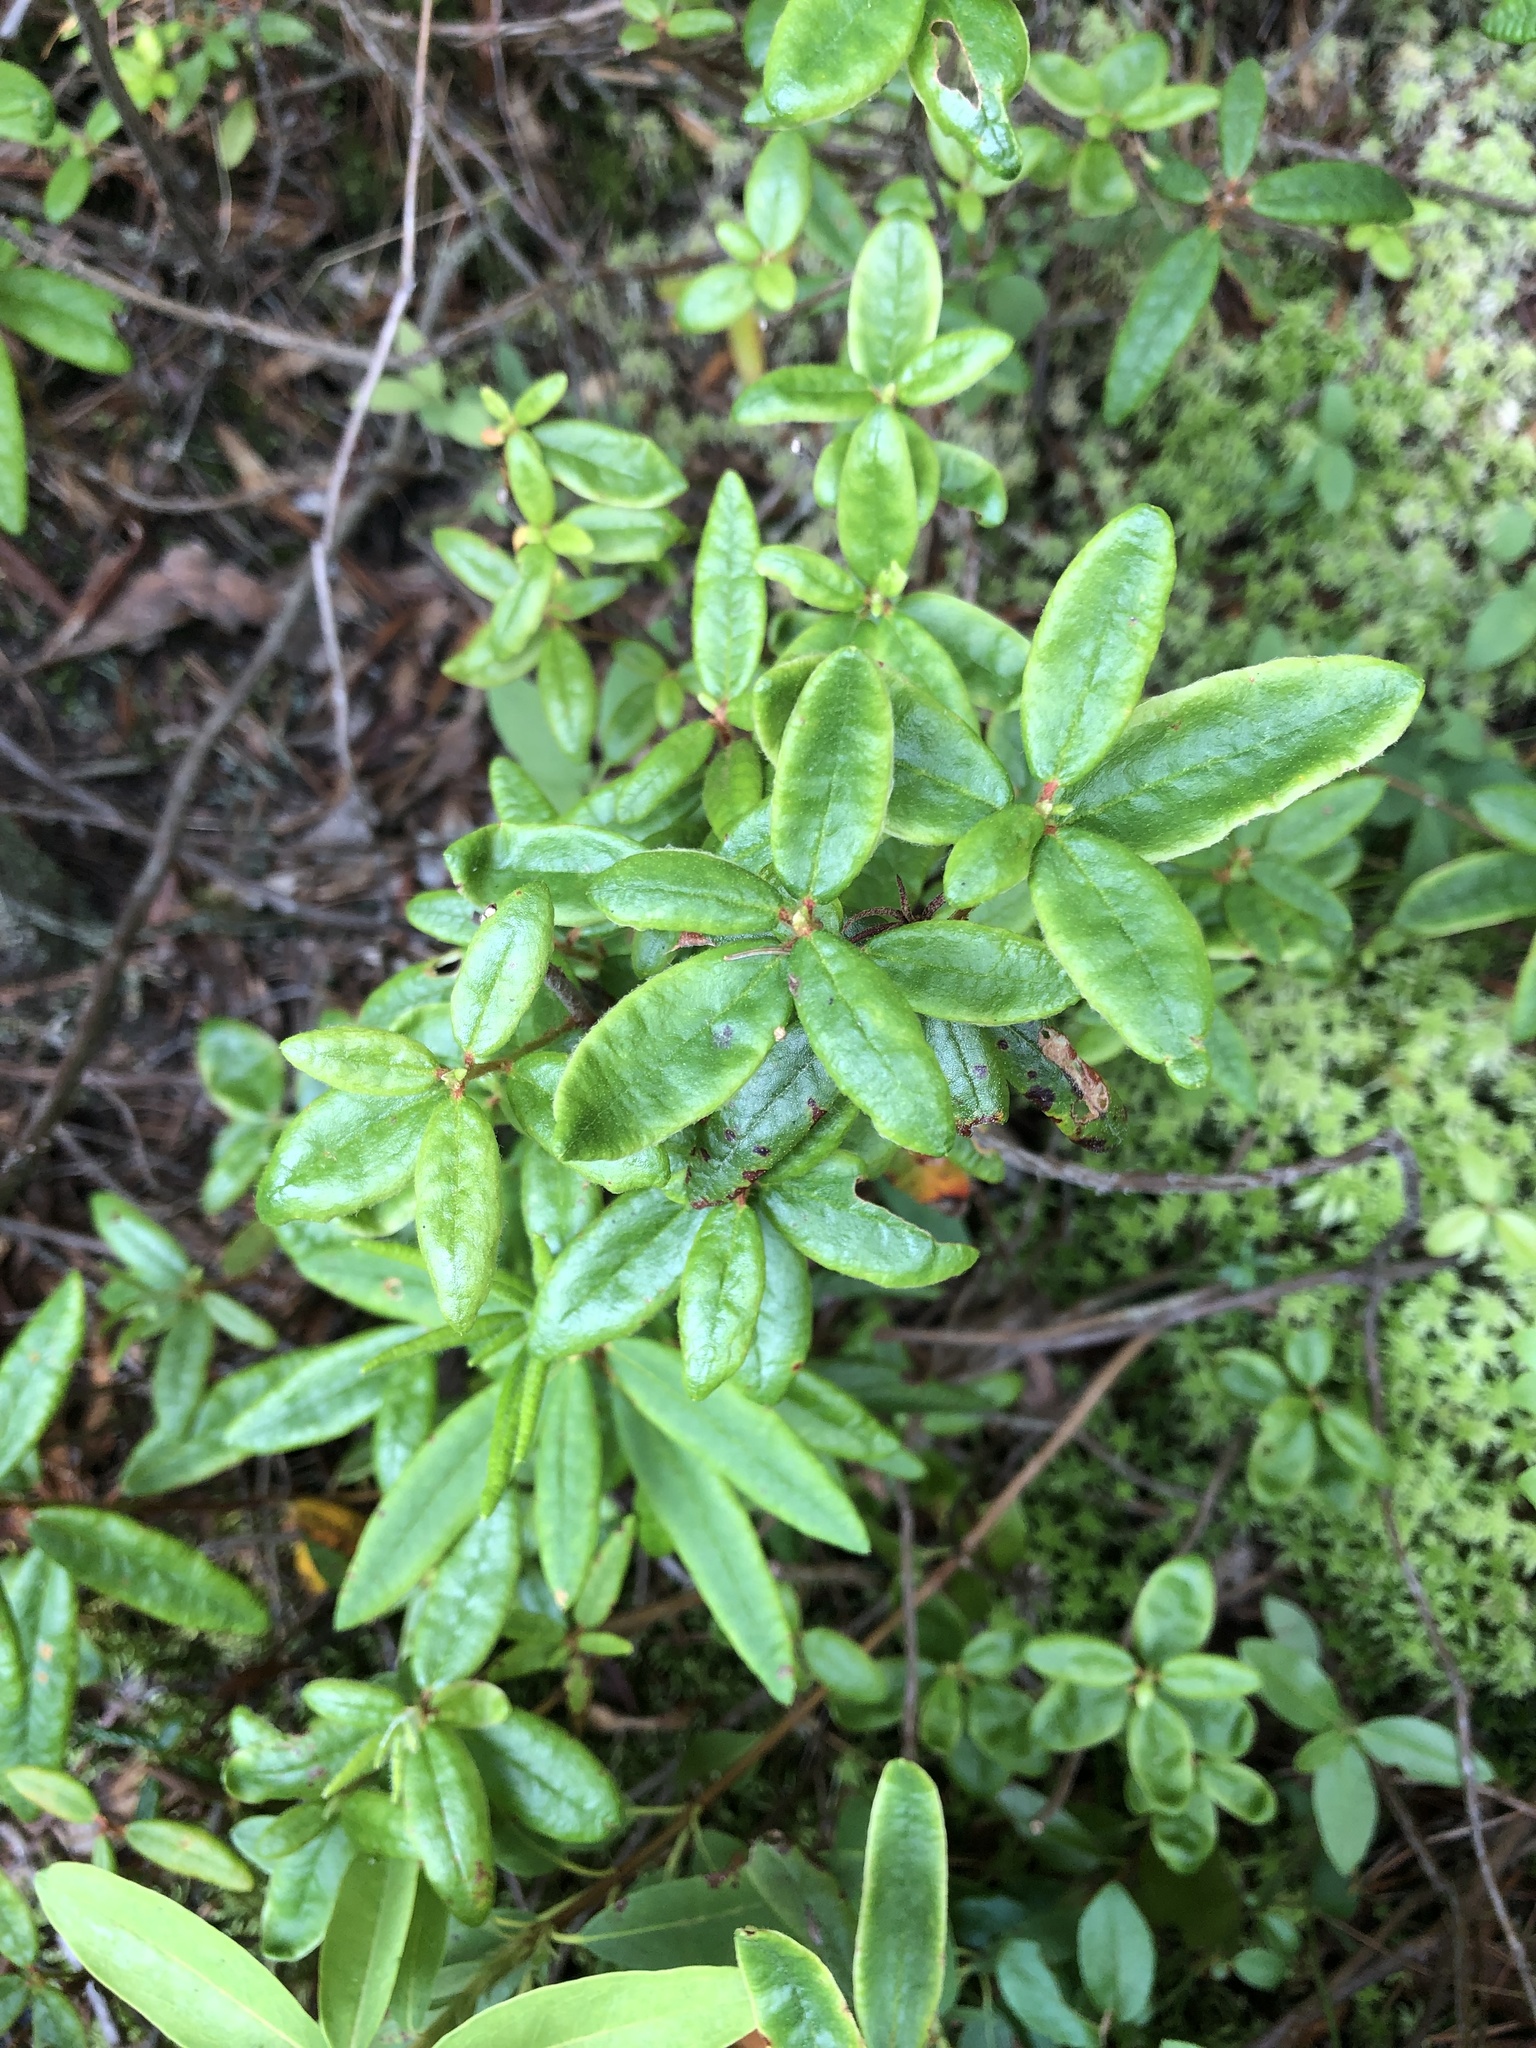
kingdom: Plantae
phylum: Tracheophyta
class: Magnoliopsida
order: Ericales
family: Ericaceae
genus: Rhododendron
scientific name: Rhododendron groenlandicum
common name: Bog labrador tea
